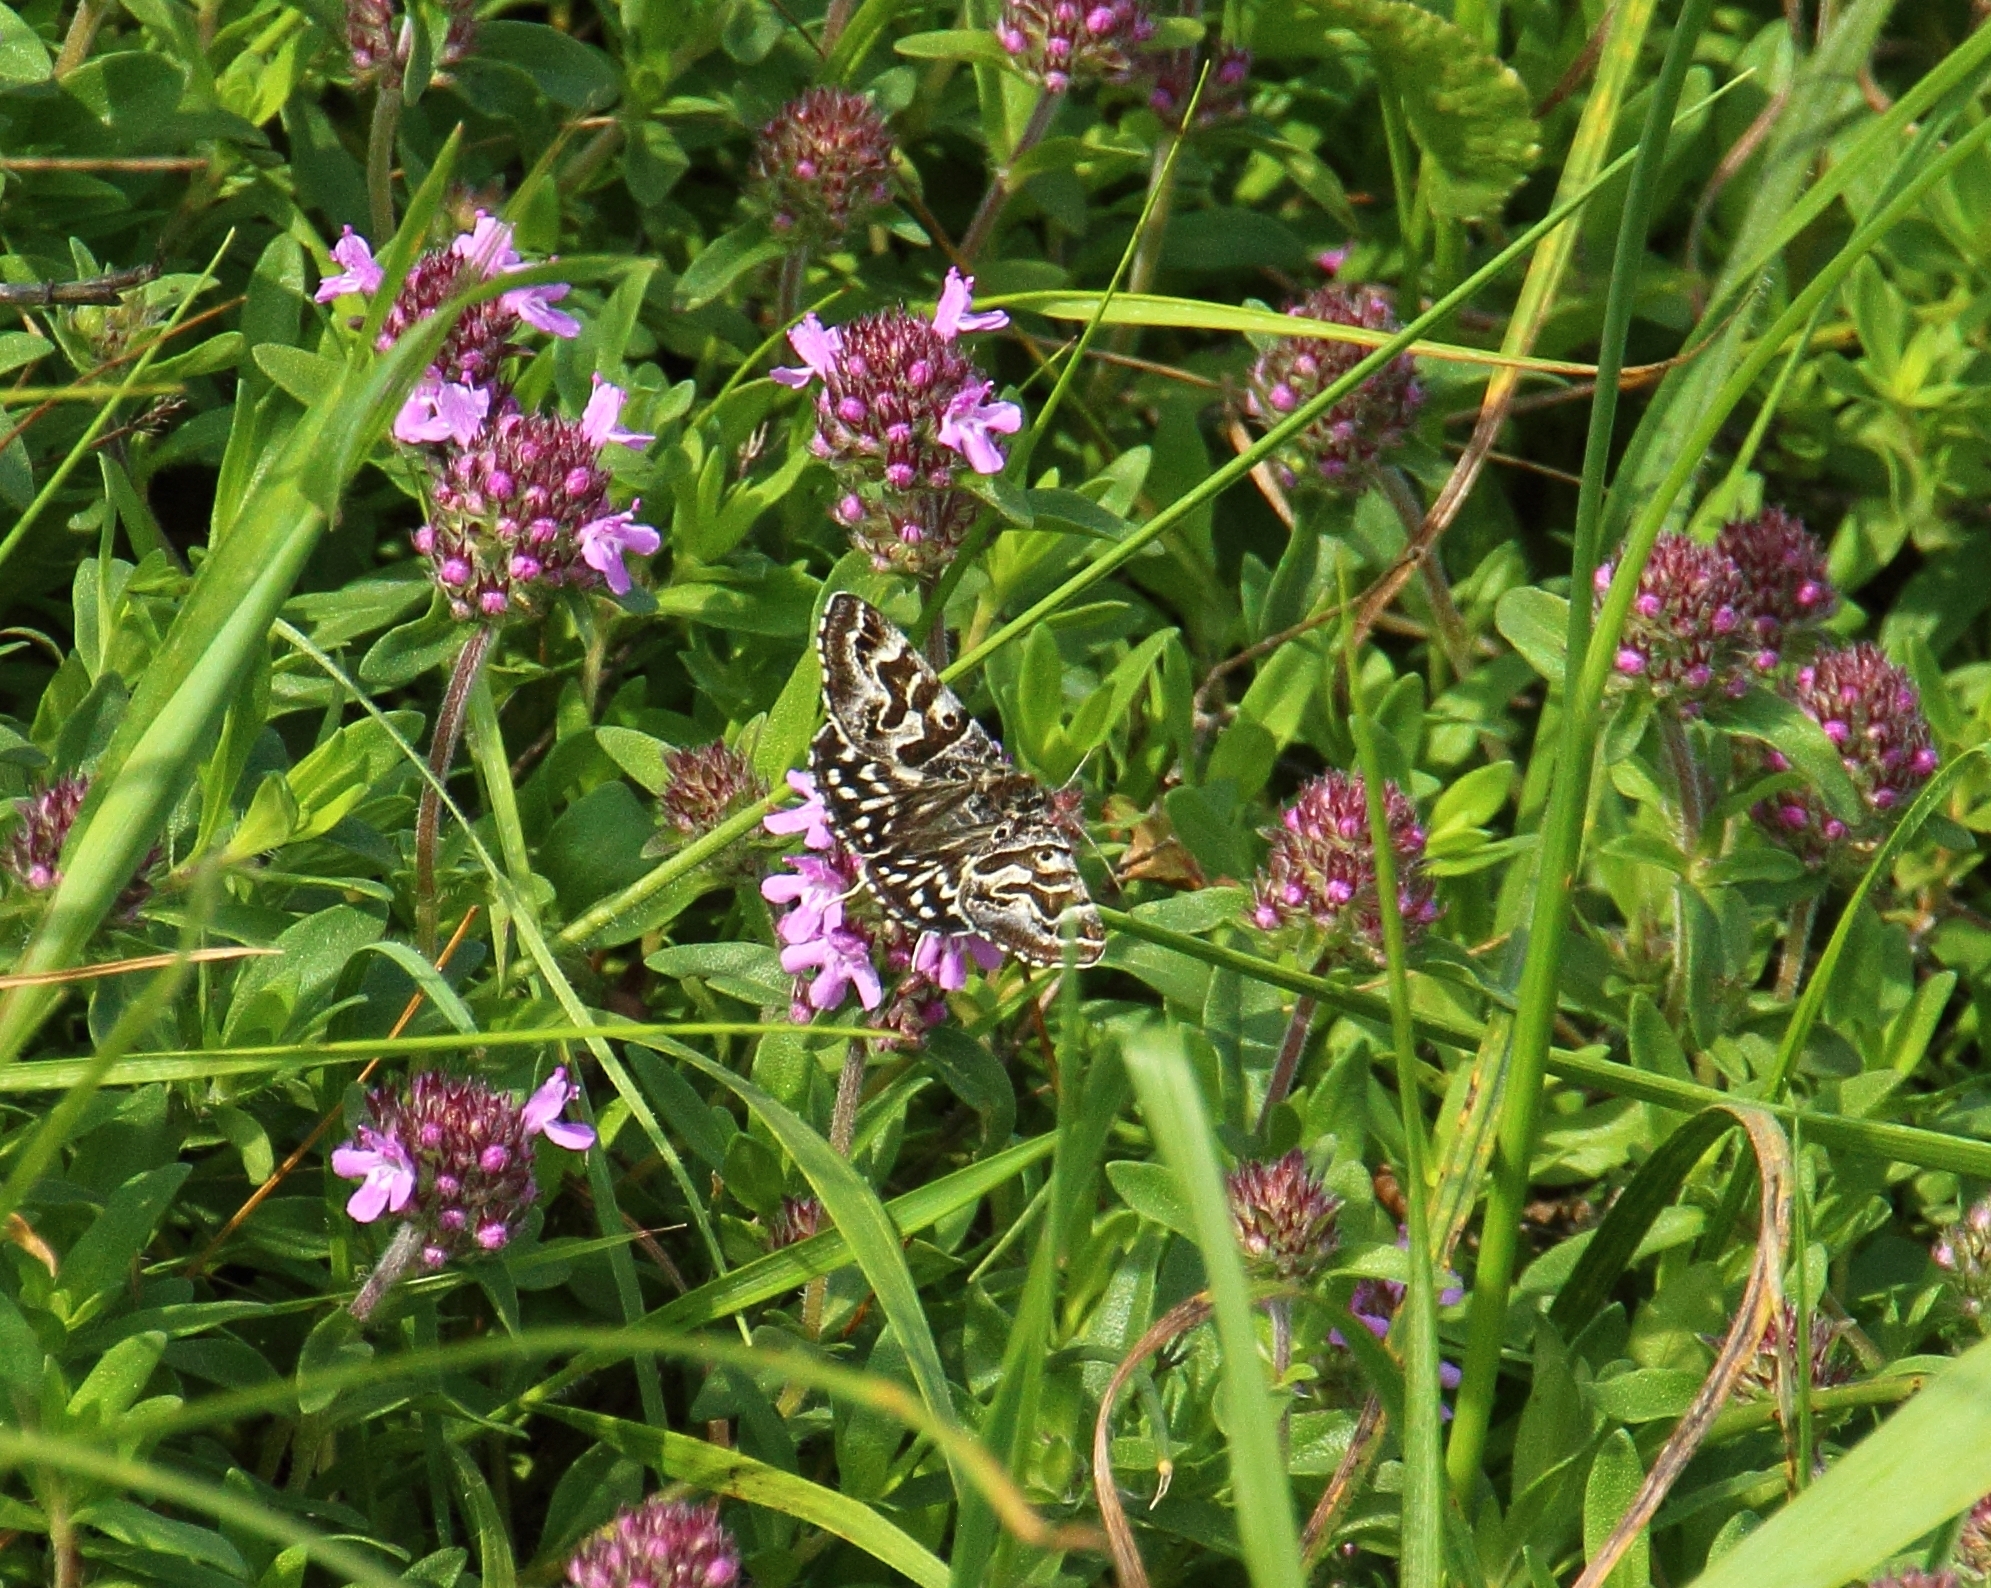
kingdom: Animalia
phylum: Arthropoda
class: Insecta
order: Lepidoptera
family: Erebidae
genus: Callistege
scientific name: Callistege mi
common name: Mother shipton
